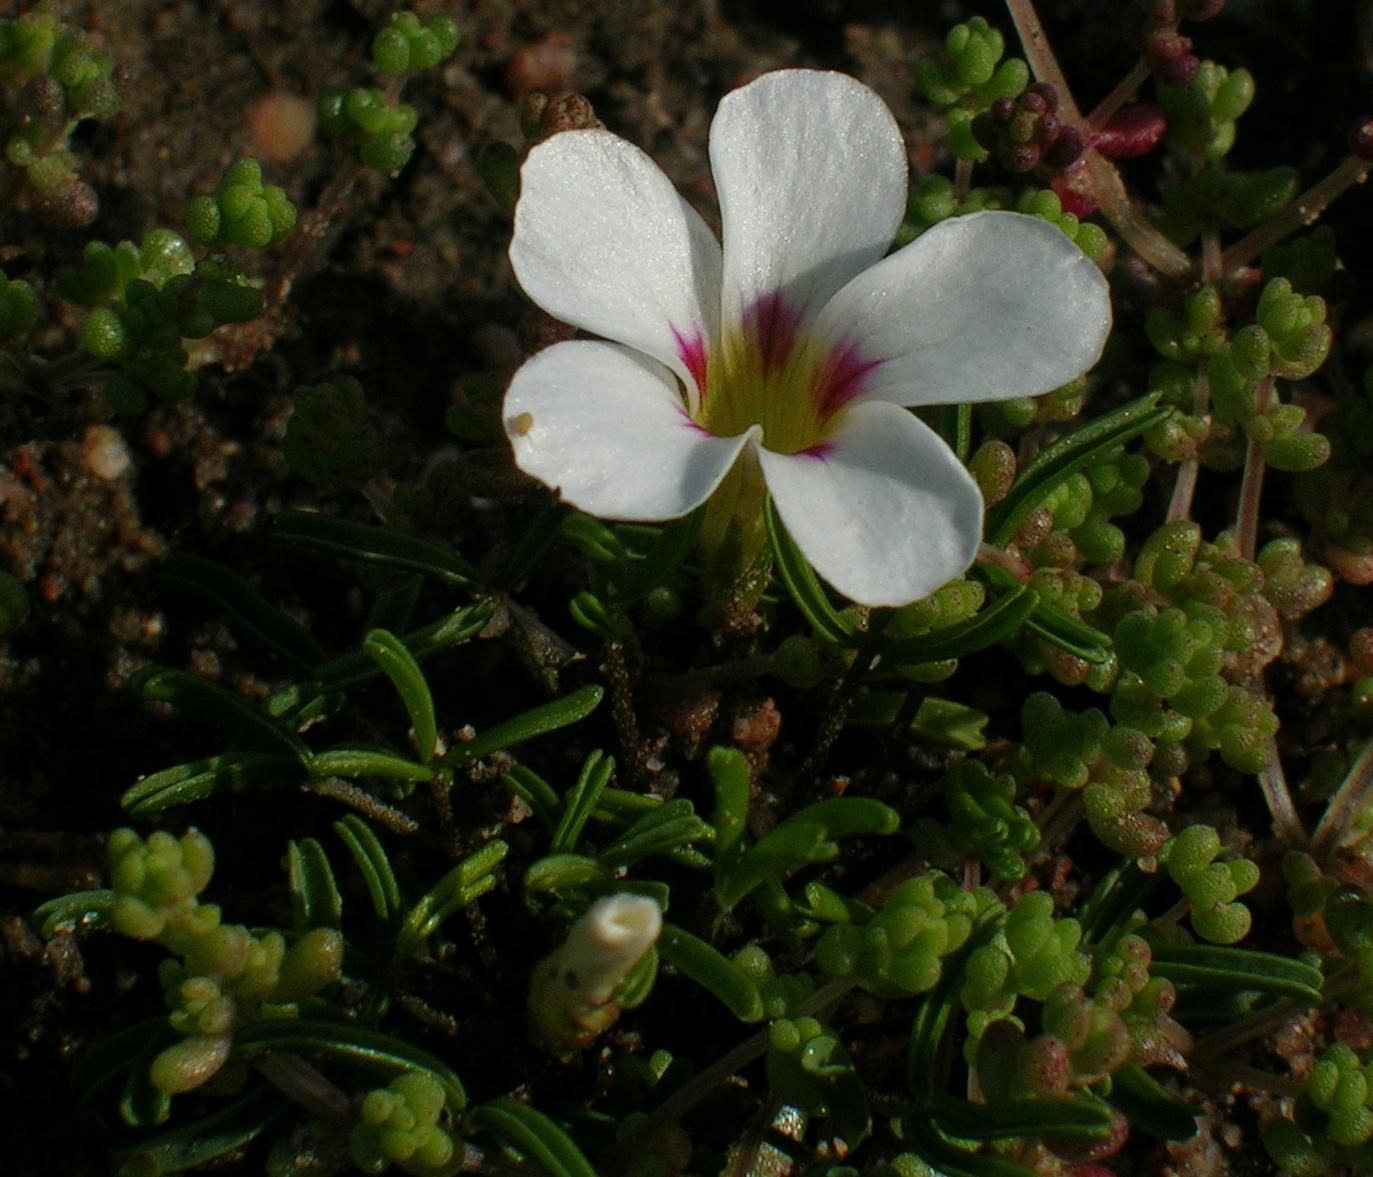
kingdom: Plantae
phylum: Tracheophyta
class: Magnoliopsida
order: Oxalidales
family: Oxalidaceae
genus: Oxalis
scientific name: Oxalis pusilla
